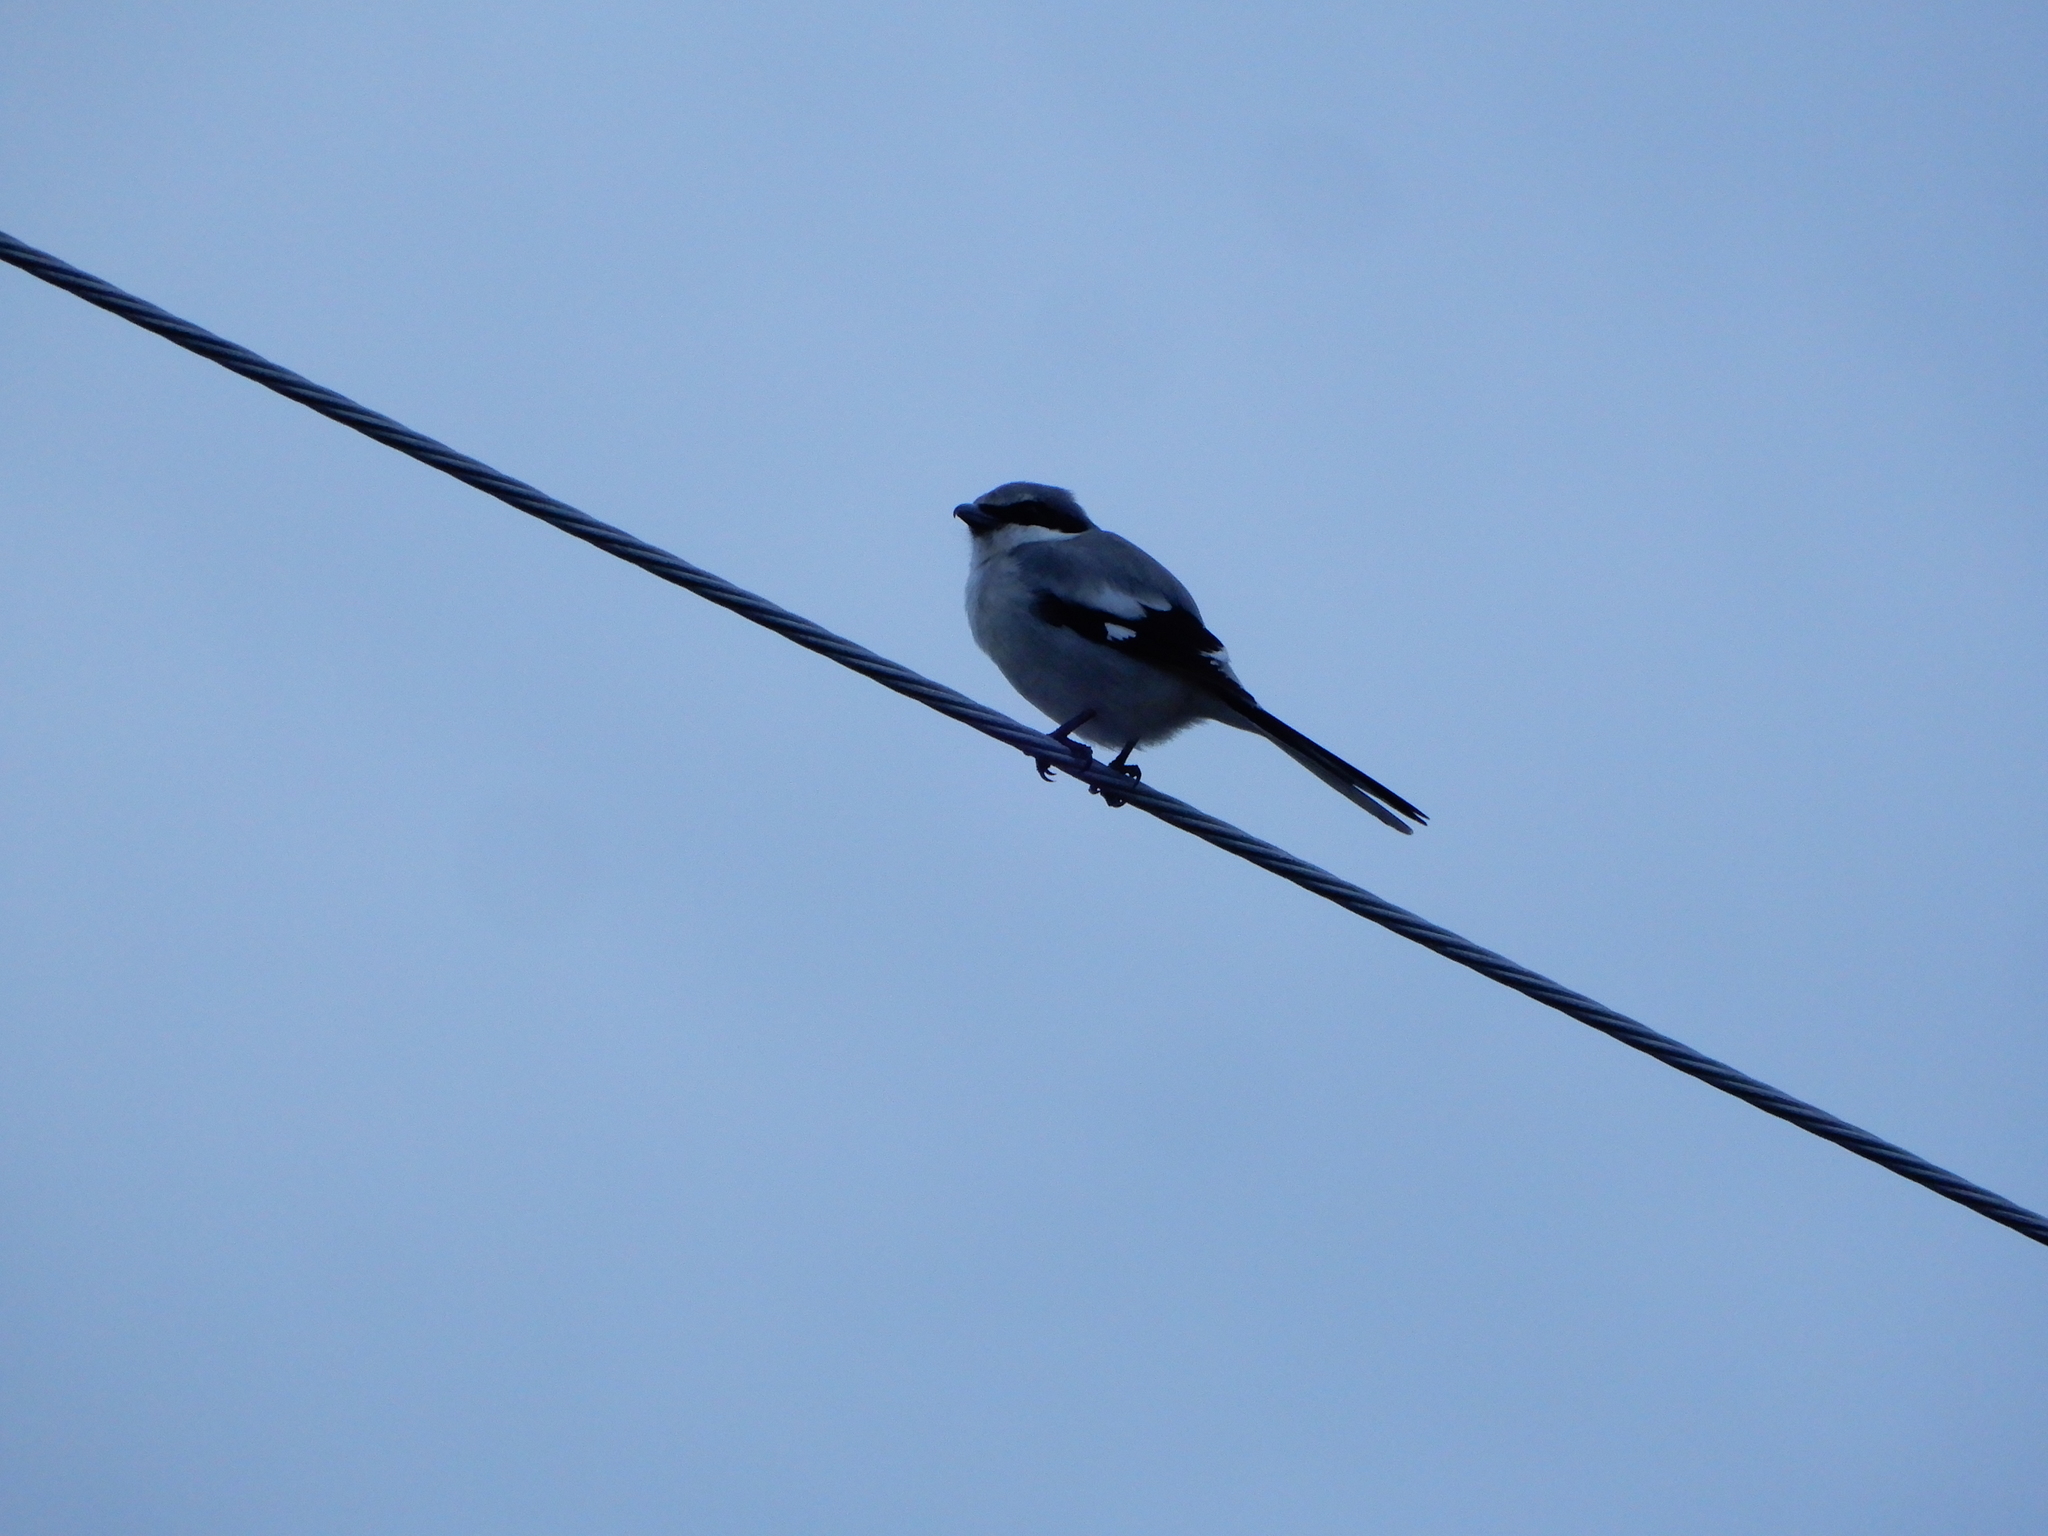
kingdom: Animalia
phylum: Chordata
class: Aves
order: Passeriformes
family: Laniidae
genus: Lanius
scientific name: Lanius ludovicianus
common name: Loggerhead shrike
